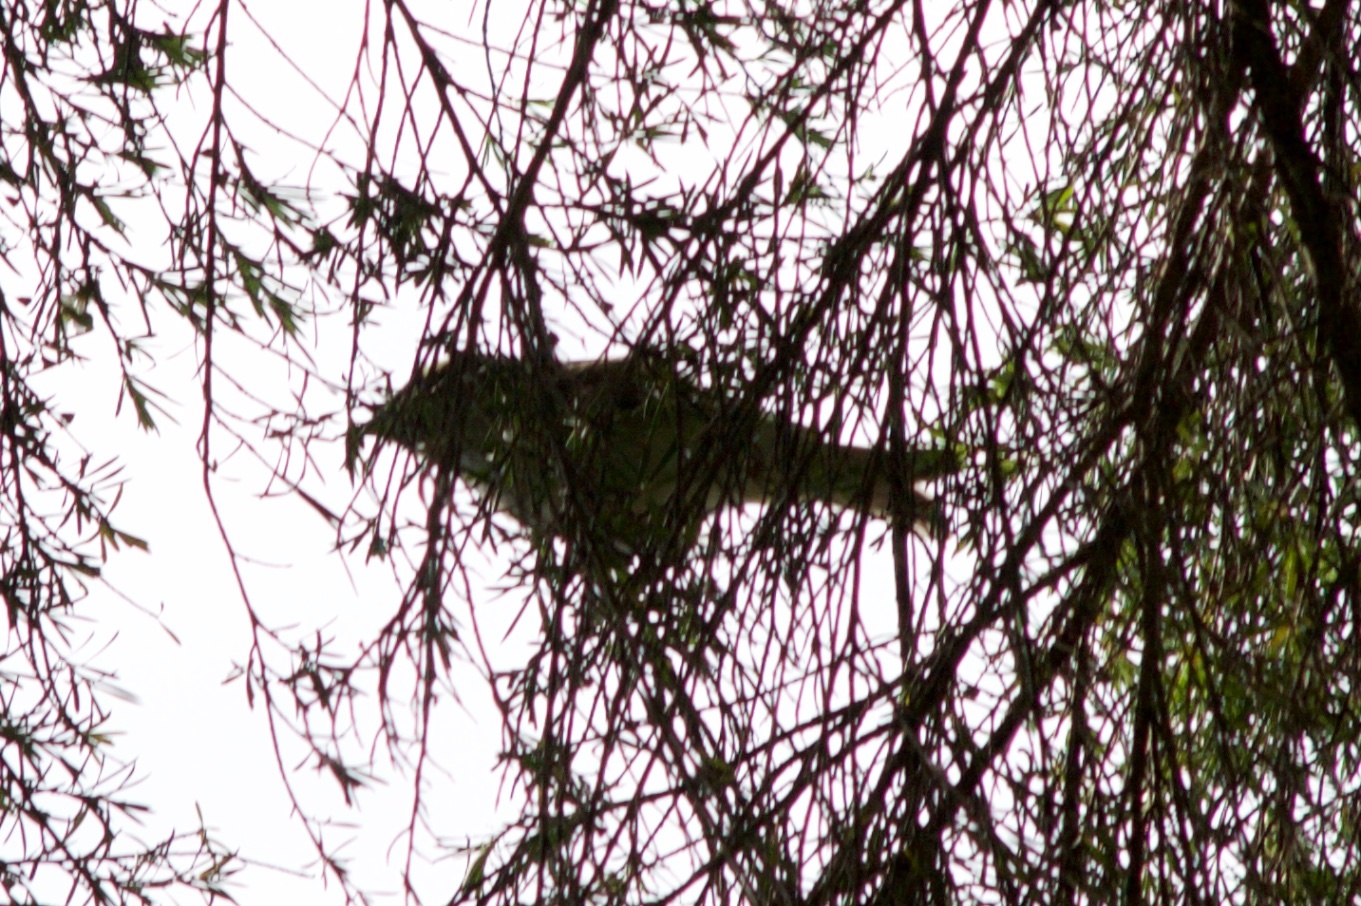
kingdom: Animalia
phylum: Chordata
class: Aves
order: Passeriformes
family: Meliphagidae
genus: Anthornis
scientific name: Anthornis melanura
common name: New zealand bellbird
